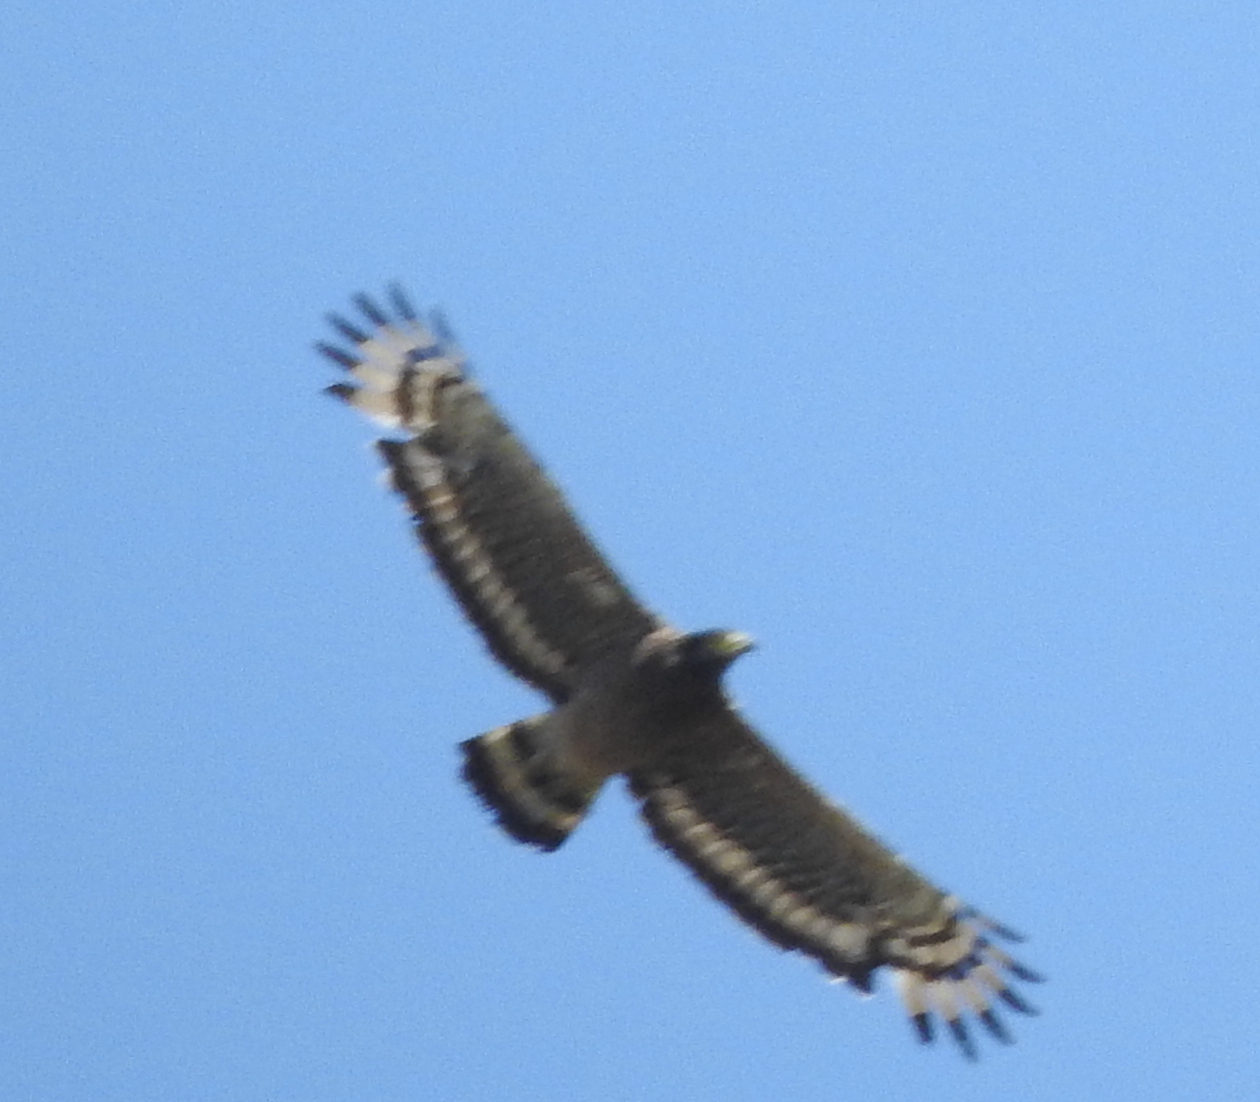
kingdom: Animalia
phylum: Chordata
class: Aves
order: Accipitriformes
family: Accipitridae
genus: Spilornis
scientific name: Spilornis cheela
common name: Crested serpent eagle
